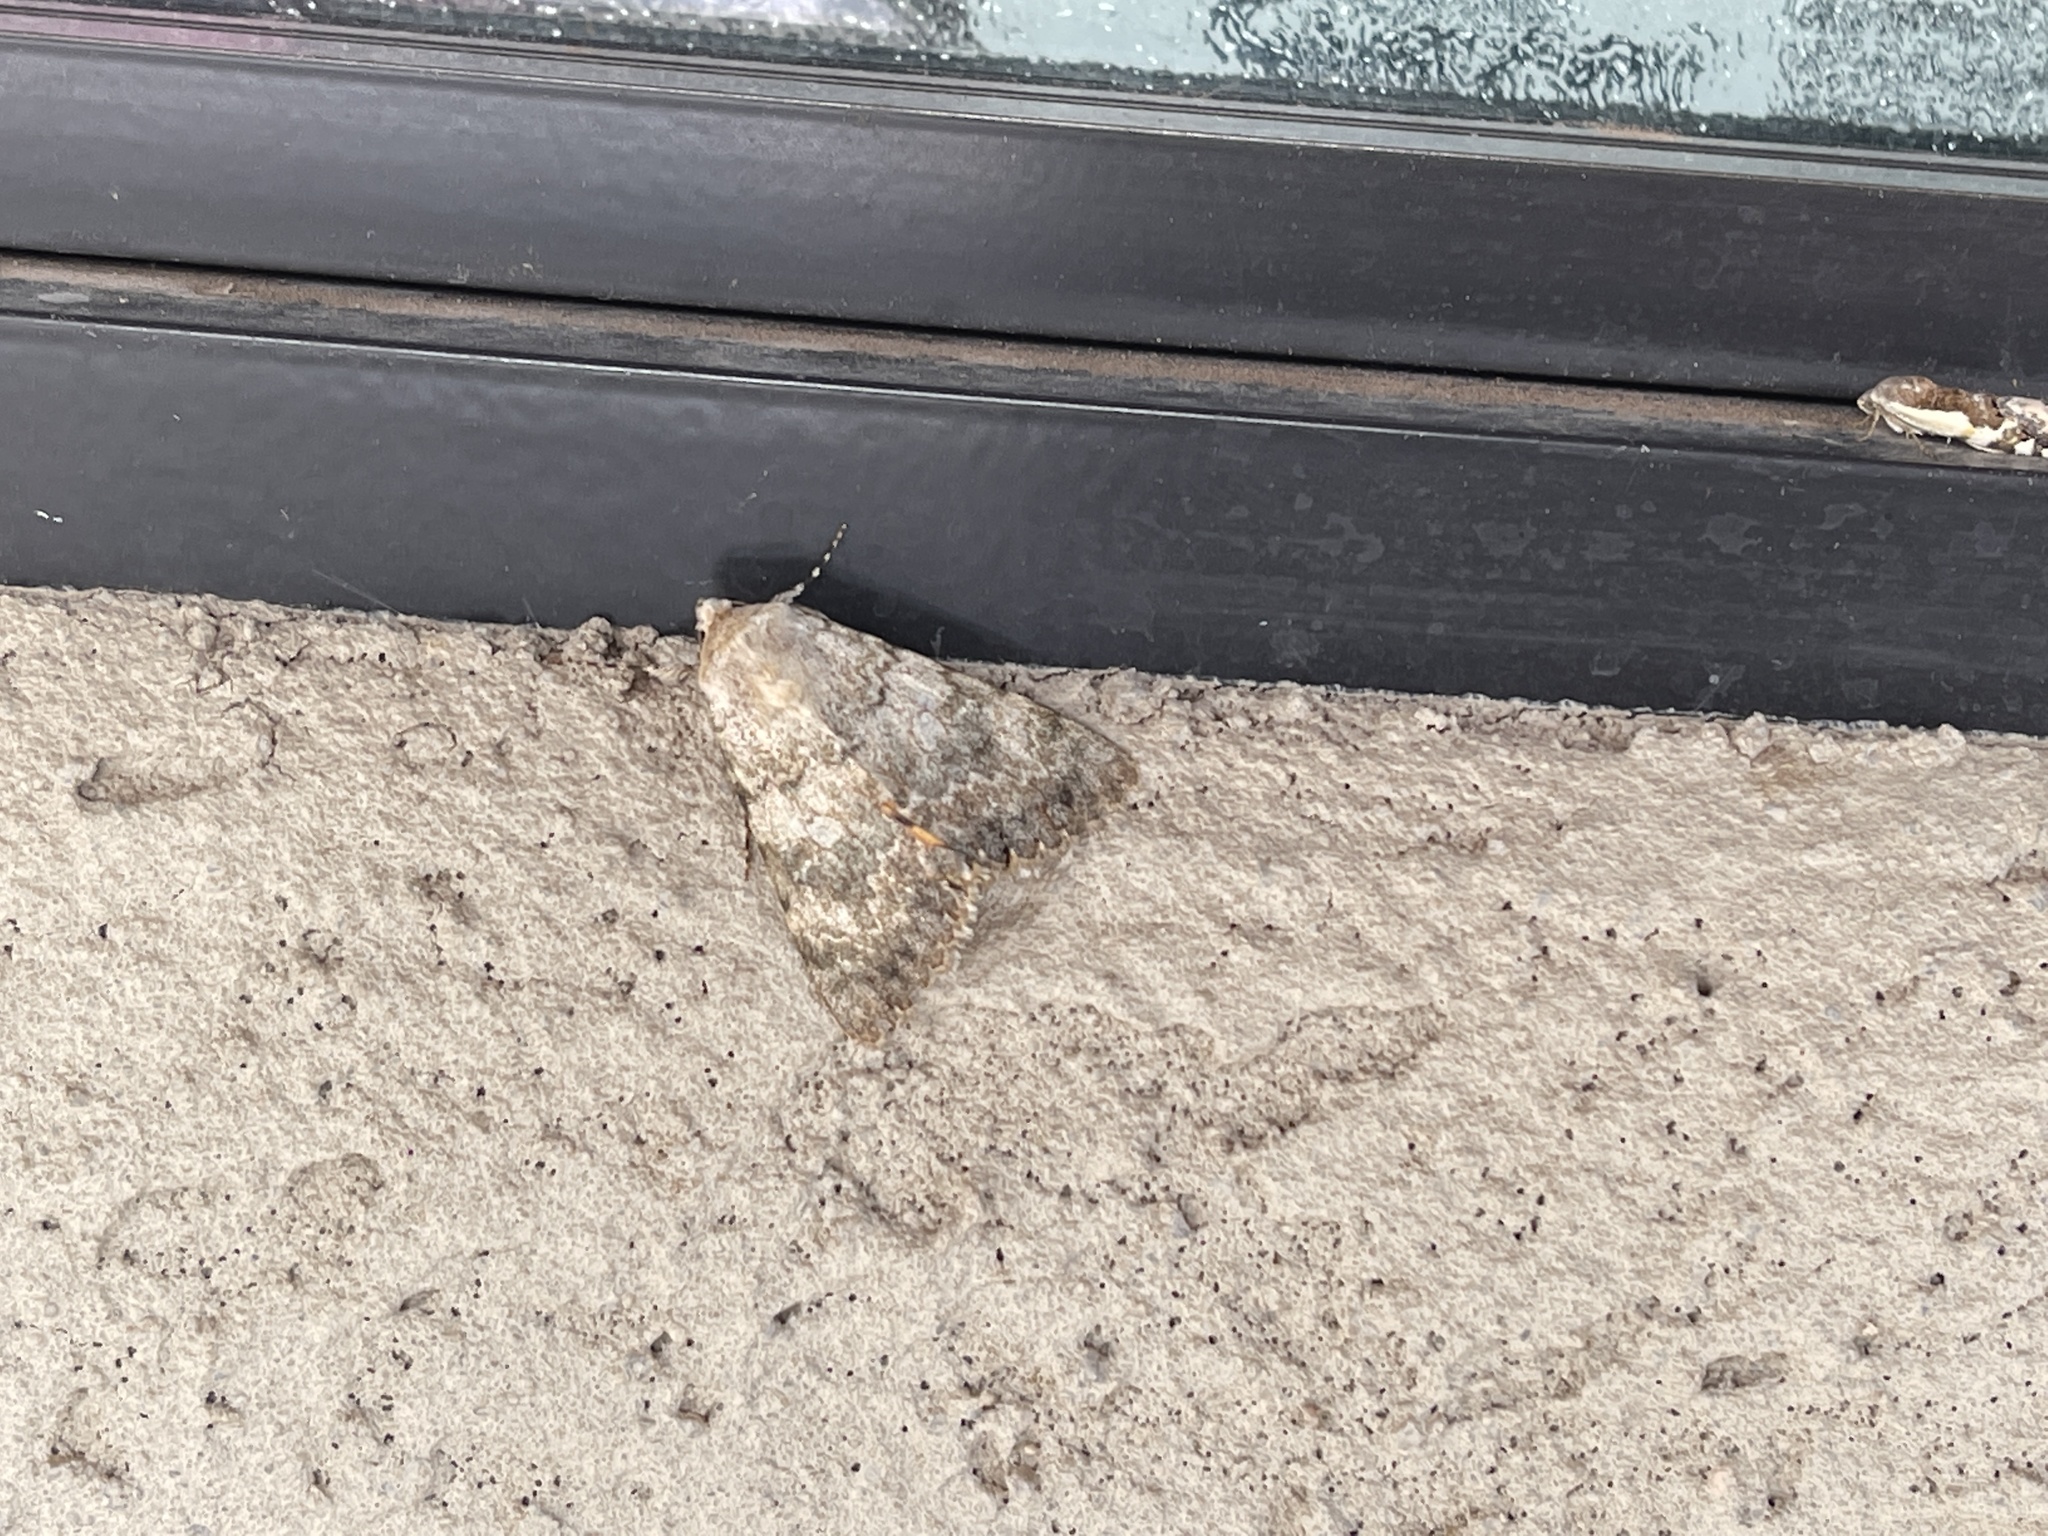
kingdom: Animalia
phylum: Arthropoda
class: Insecta
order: Lepidoptera
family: Erebidae
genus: Bulia
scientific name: Bulia deducta
